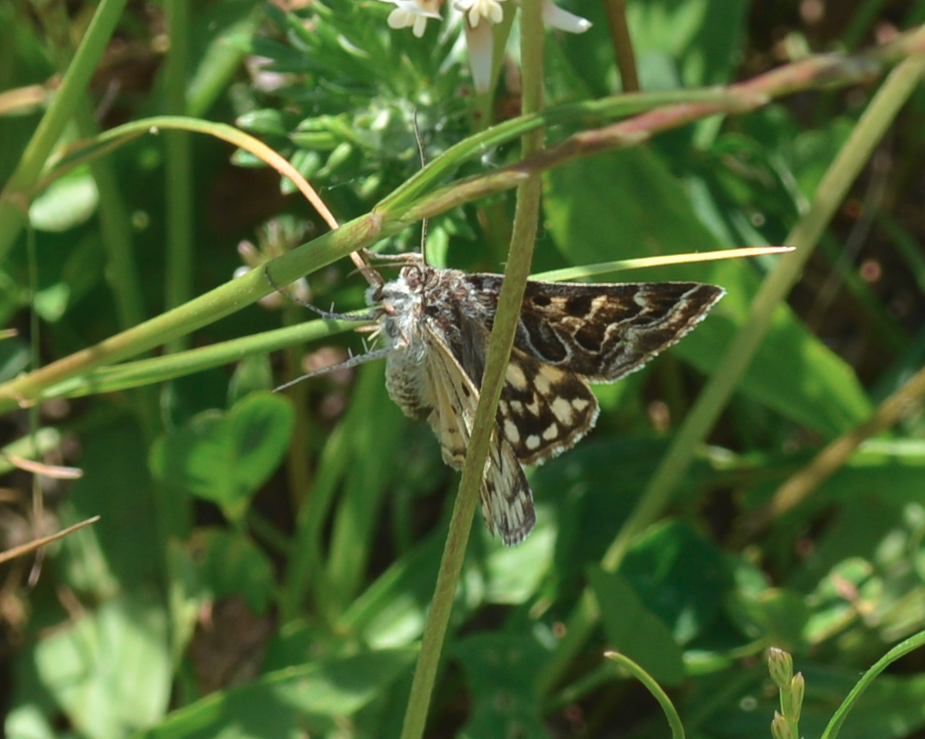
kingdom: Animalia
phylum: Arthropoda
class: Insecta
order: Lepidoptera
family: Erebidae
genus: Callistege
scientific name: Callistege mi
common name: Mother shipton
